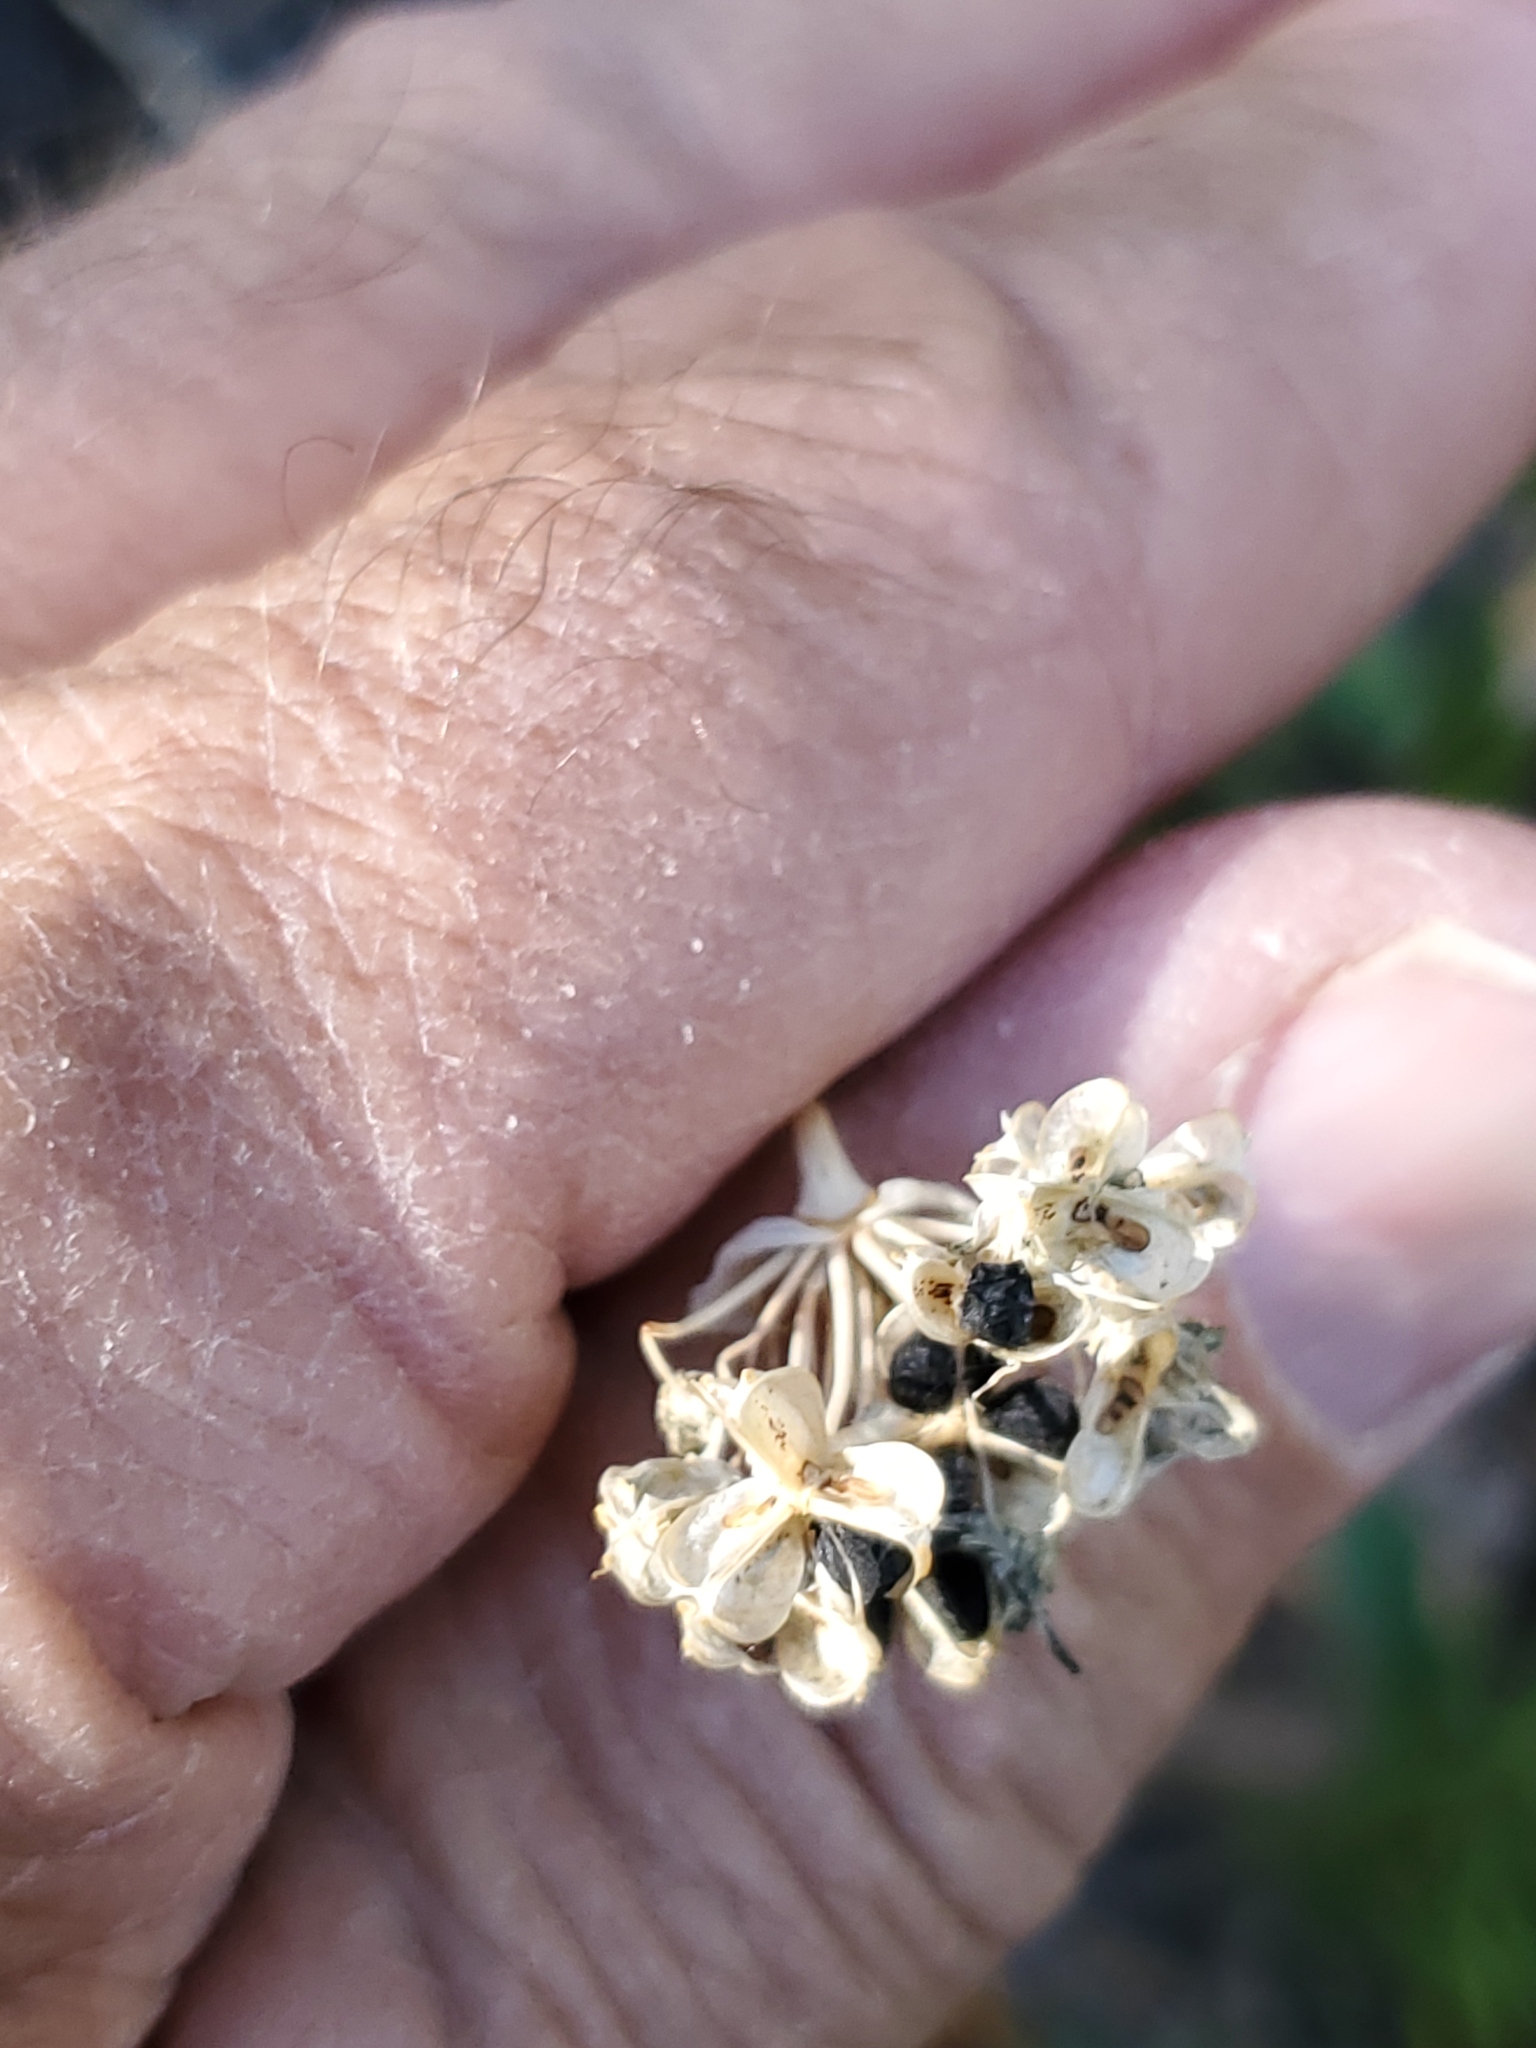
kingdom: Plantae
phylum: Tracheophyta
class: Liliopsida
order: Asparagales
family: Amaryllidaceae
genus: Allium
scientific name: Allium brevistylum
